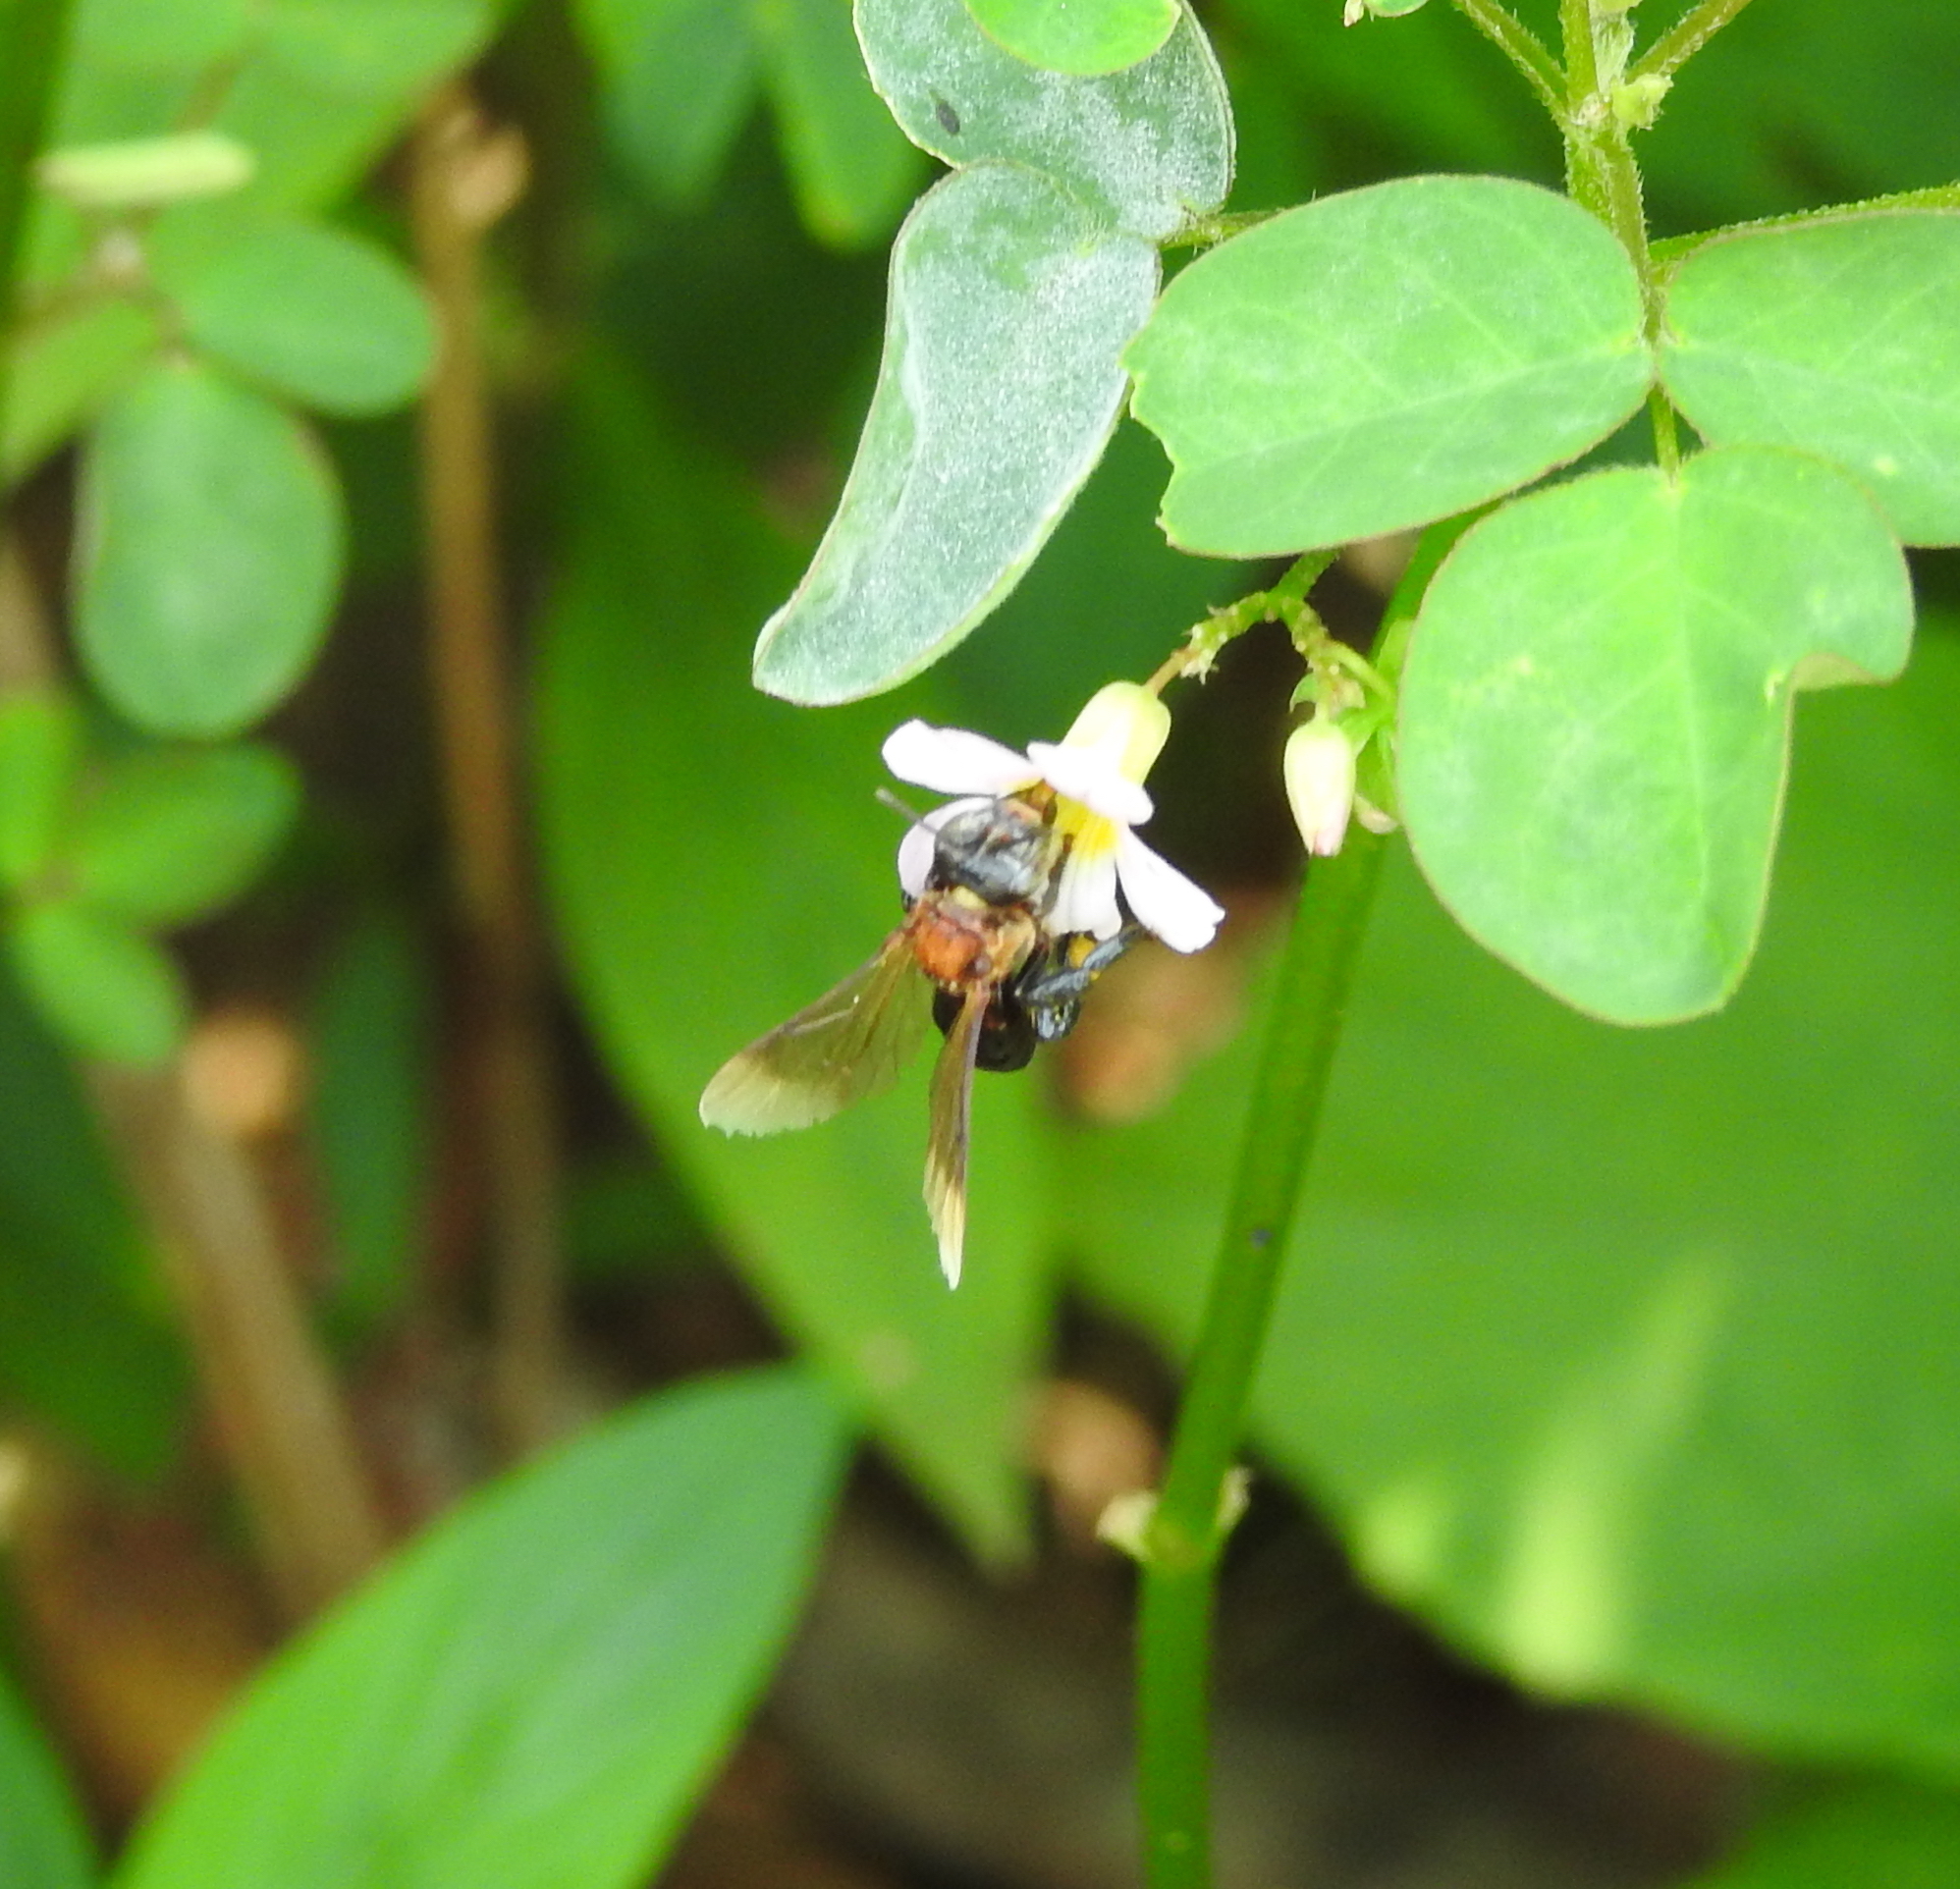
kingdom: Animalia
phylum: Arthropoda
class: Insecta
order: Hymenoptera
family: Apidae
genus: Geniotrigona
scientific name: Geniotrigona thoracica
